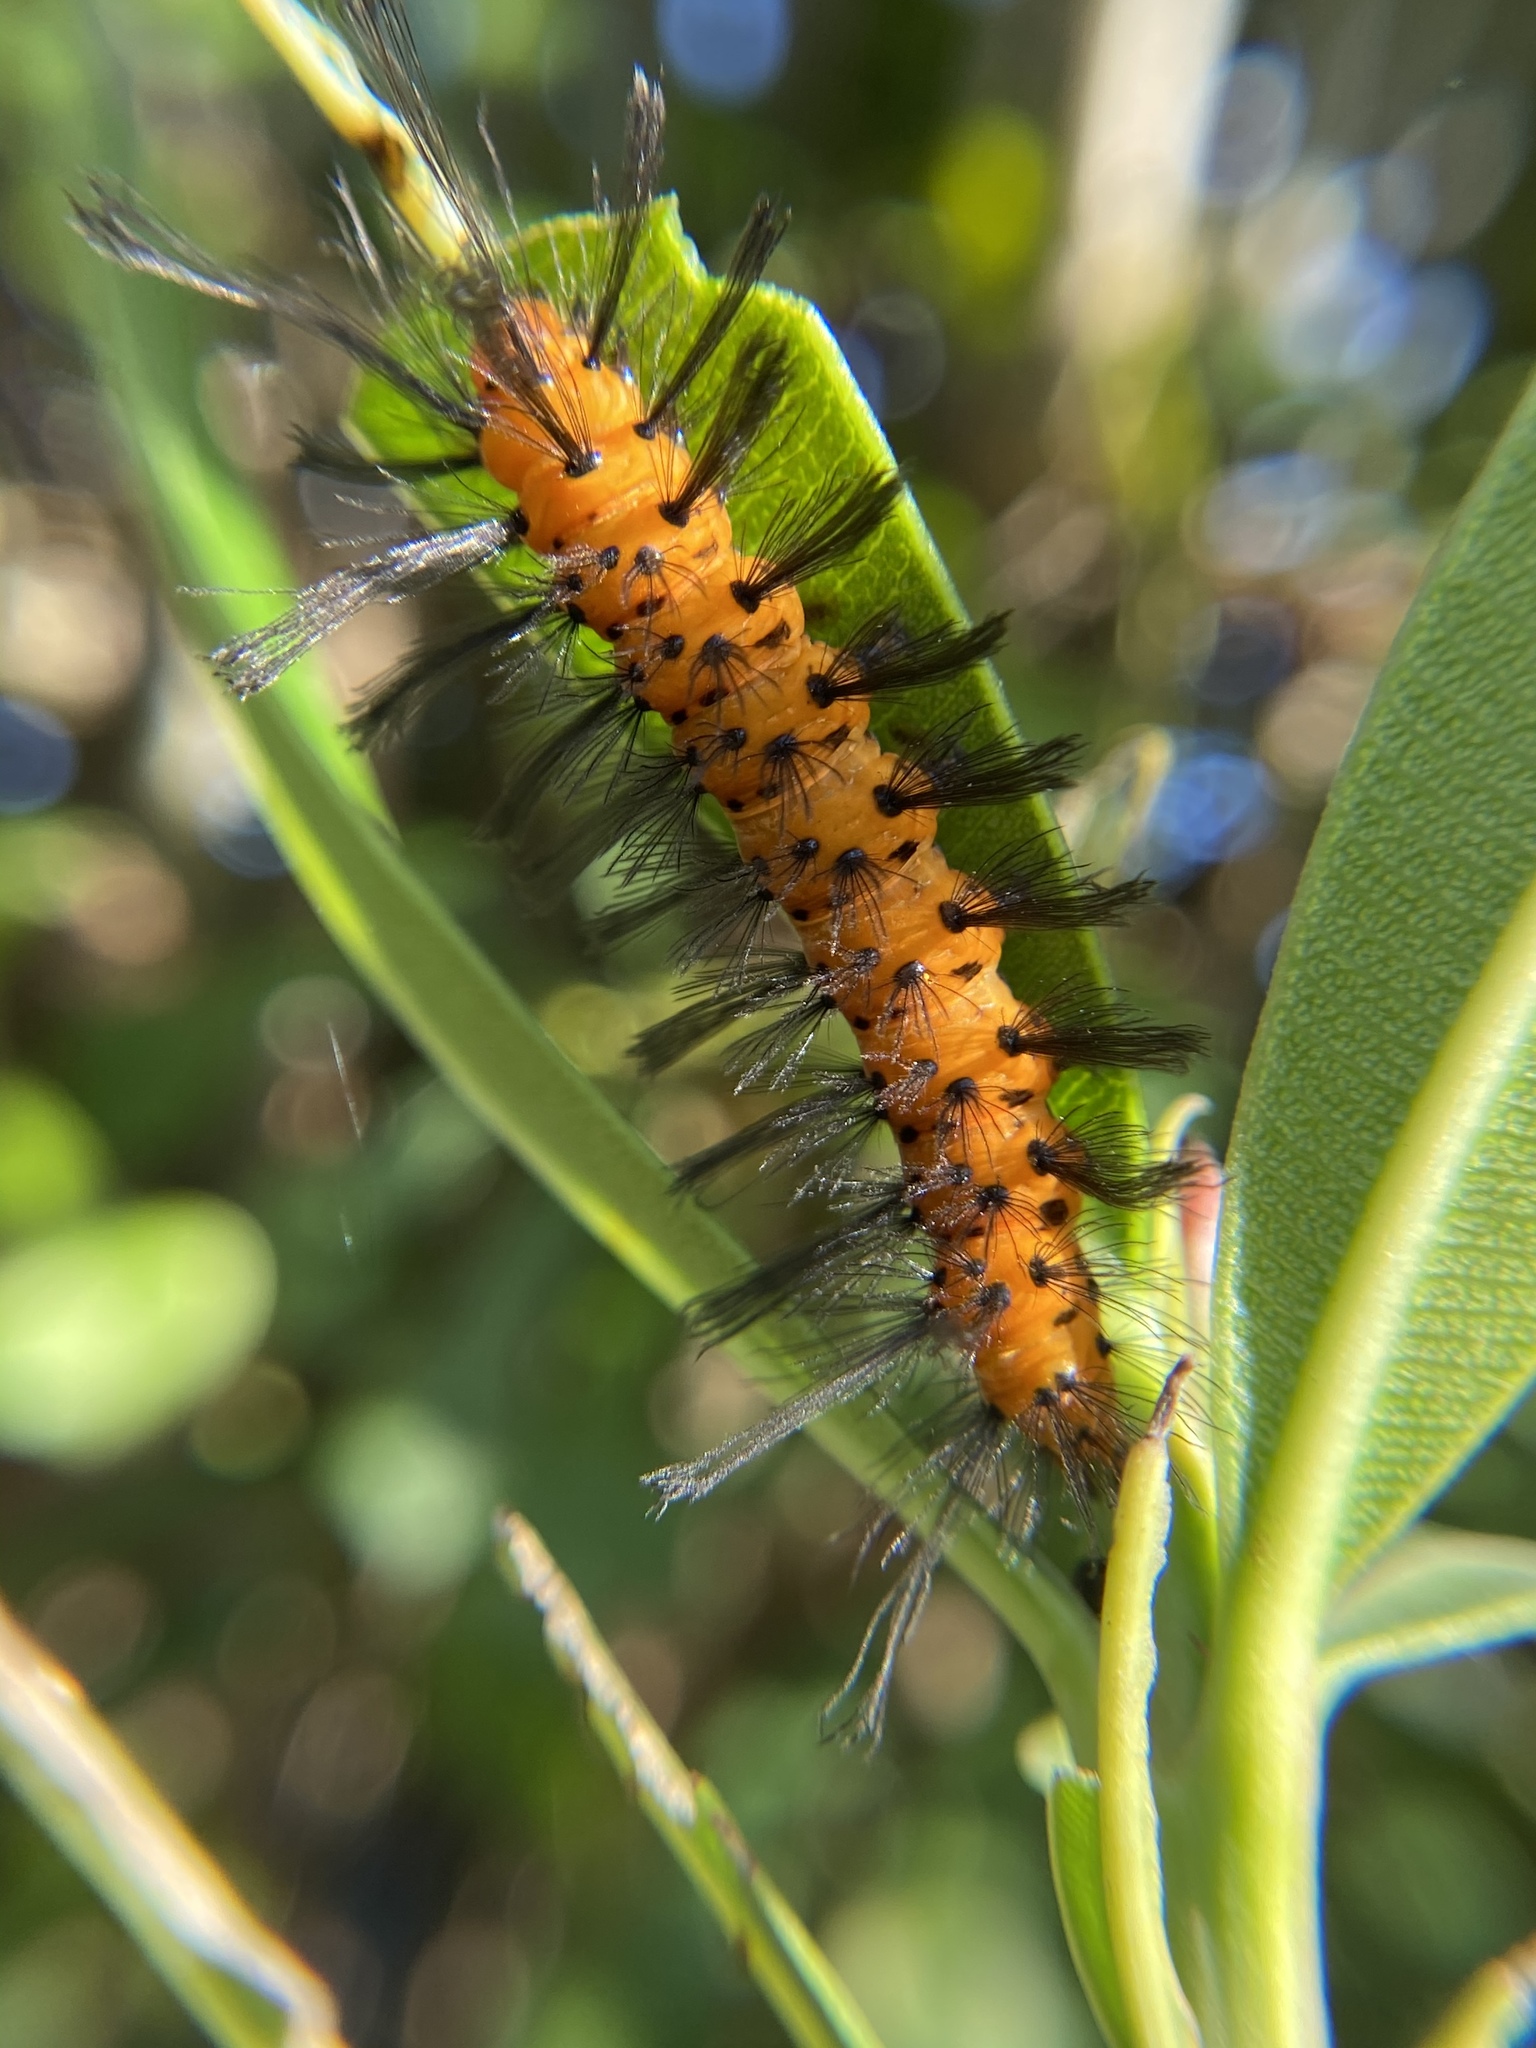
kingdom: Animalia
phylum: Arthropoda
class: Insecta
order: Lepidoptera
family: Erebidae
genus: Syntomeida
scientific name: Syntomeida epilais
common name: Polka-dot wasp moth
